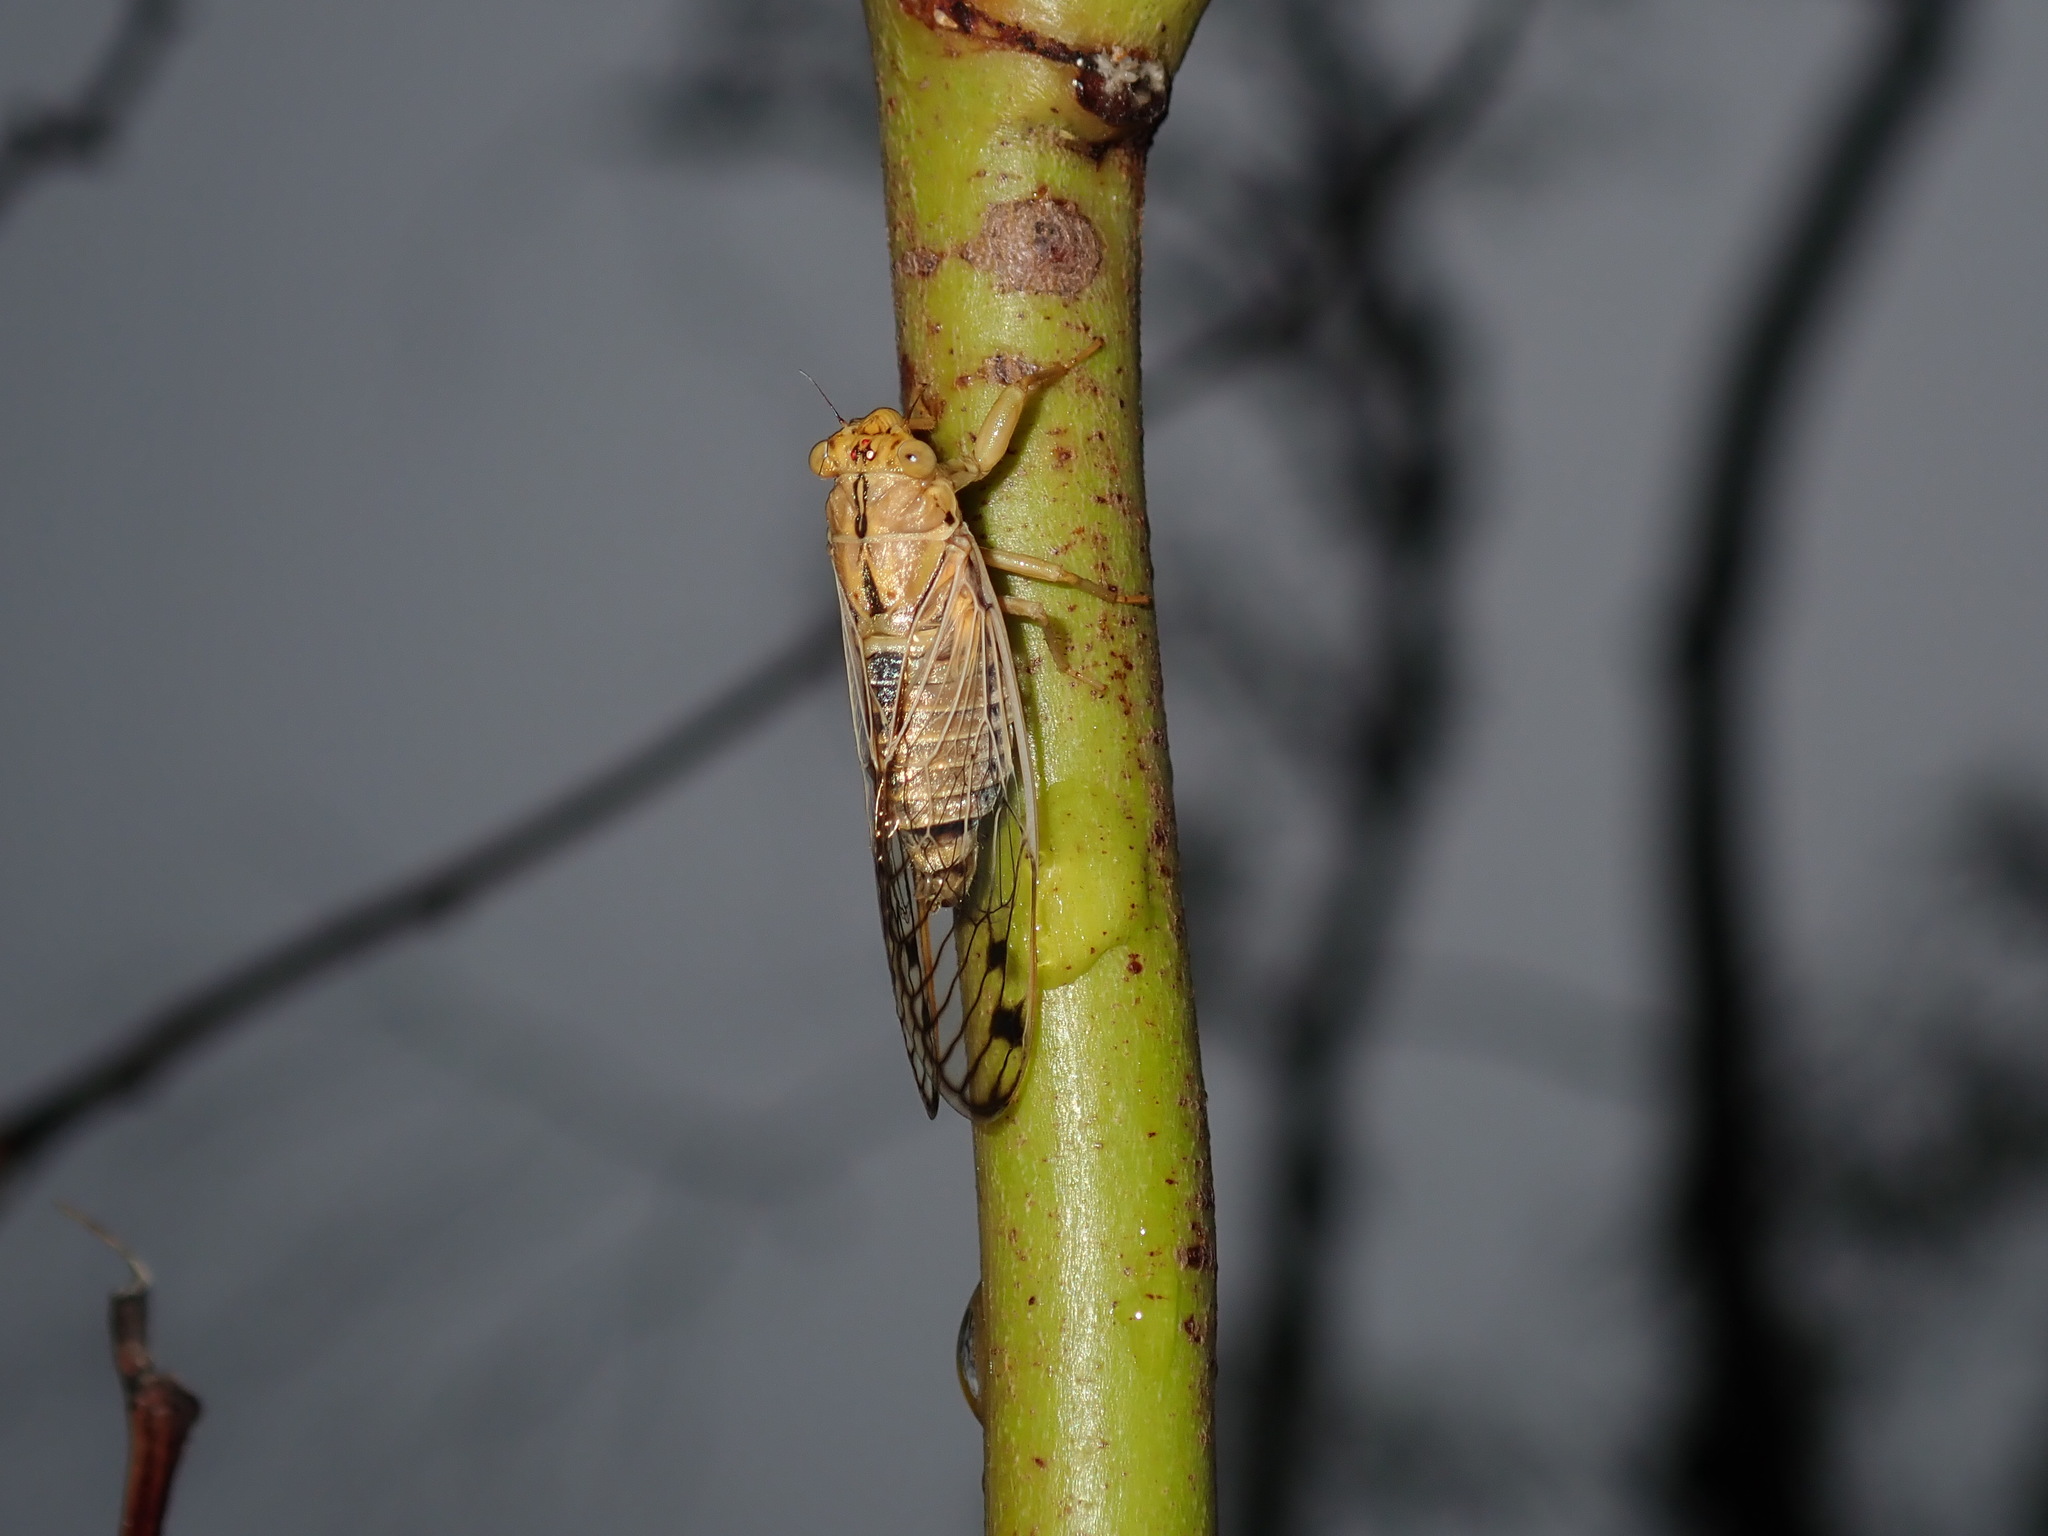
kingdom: Animalia
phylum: Arthropoda
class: Insecta
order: Hemiptera
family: Cicadidae
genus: Parnkalla
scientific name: Parnkalla muelleri
